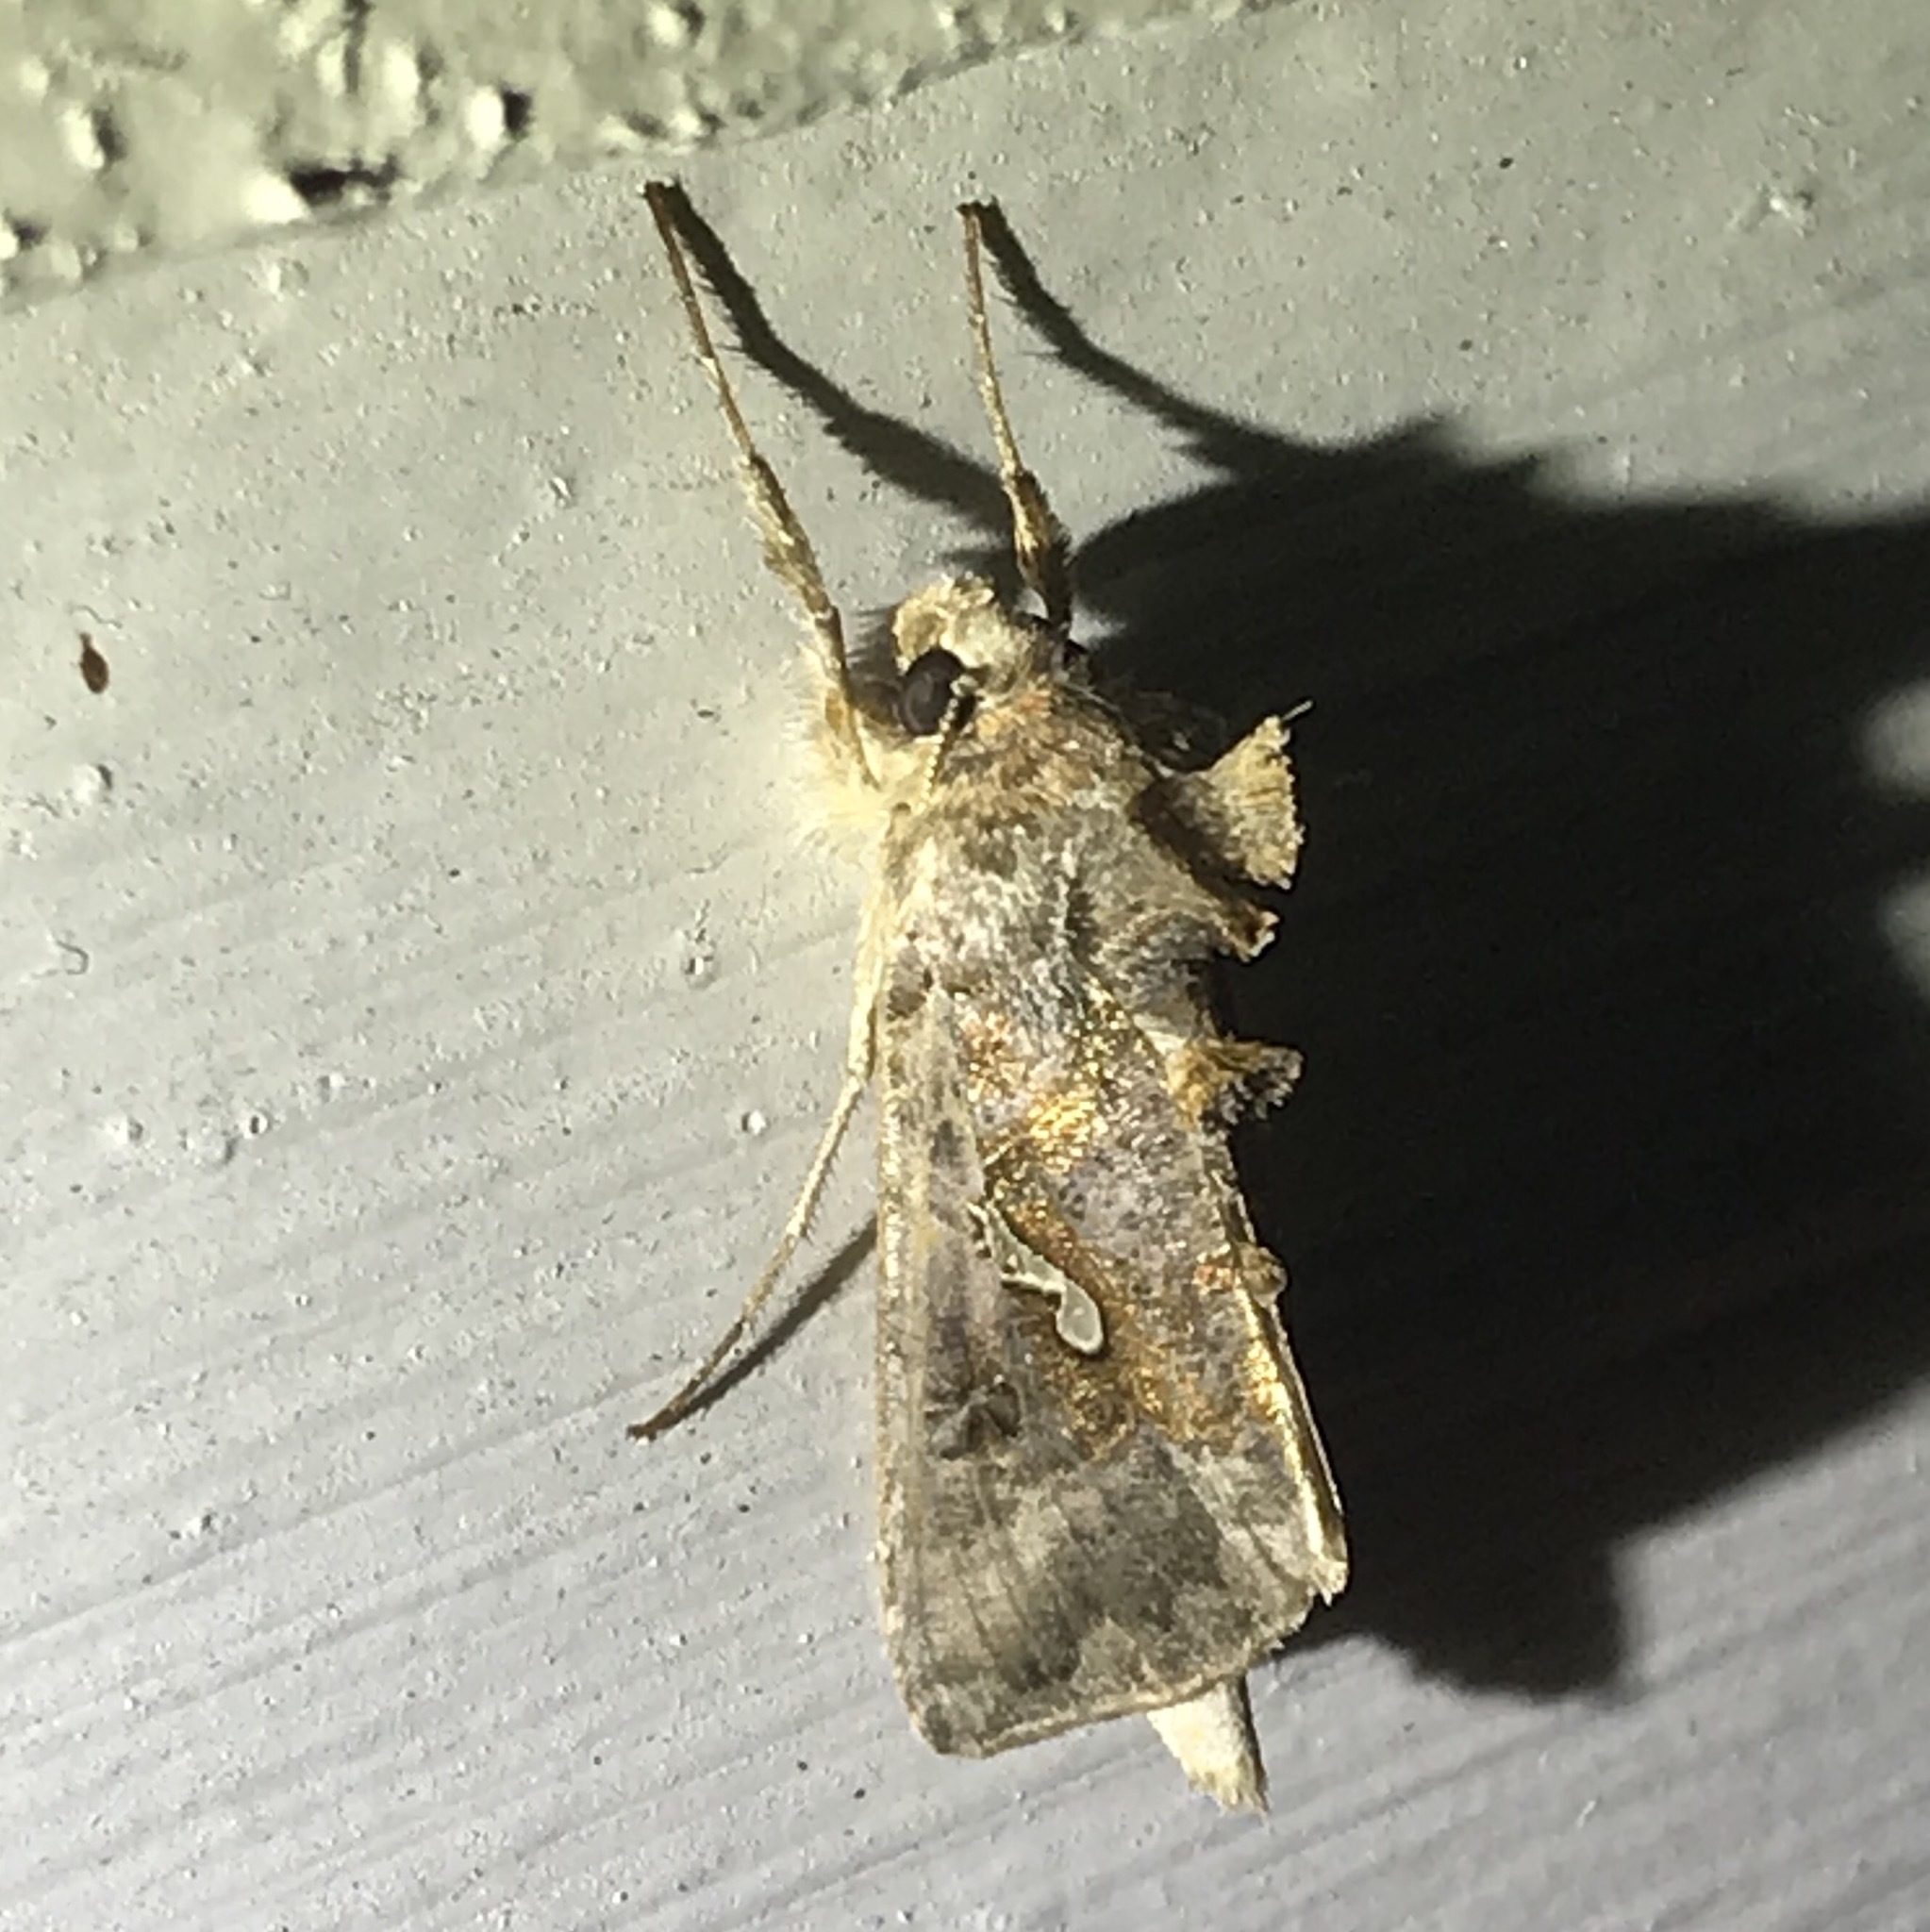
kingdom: Animalia
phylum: Arthropoda
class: Insecta
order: Lepidoptera
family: Noctuidae
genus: Autographa
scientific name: Autographa precationis
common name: Common looper moth
